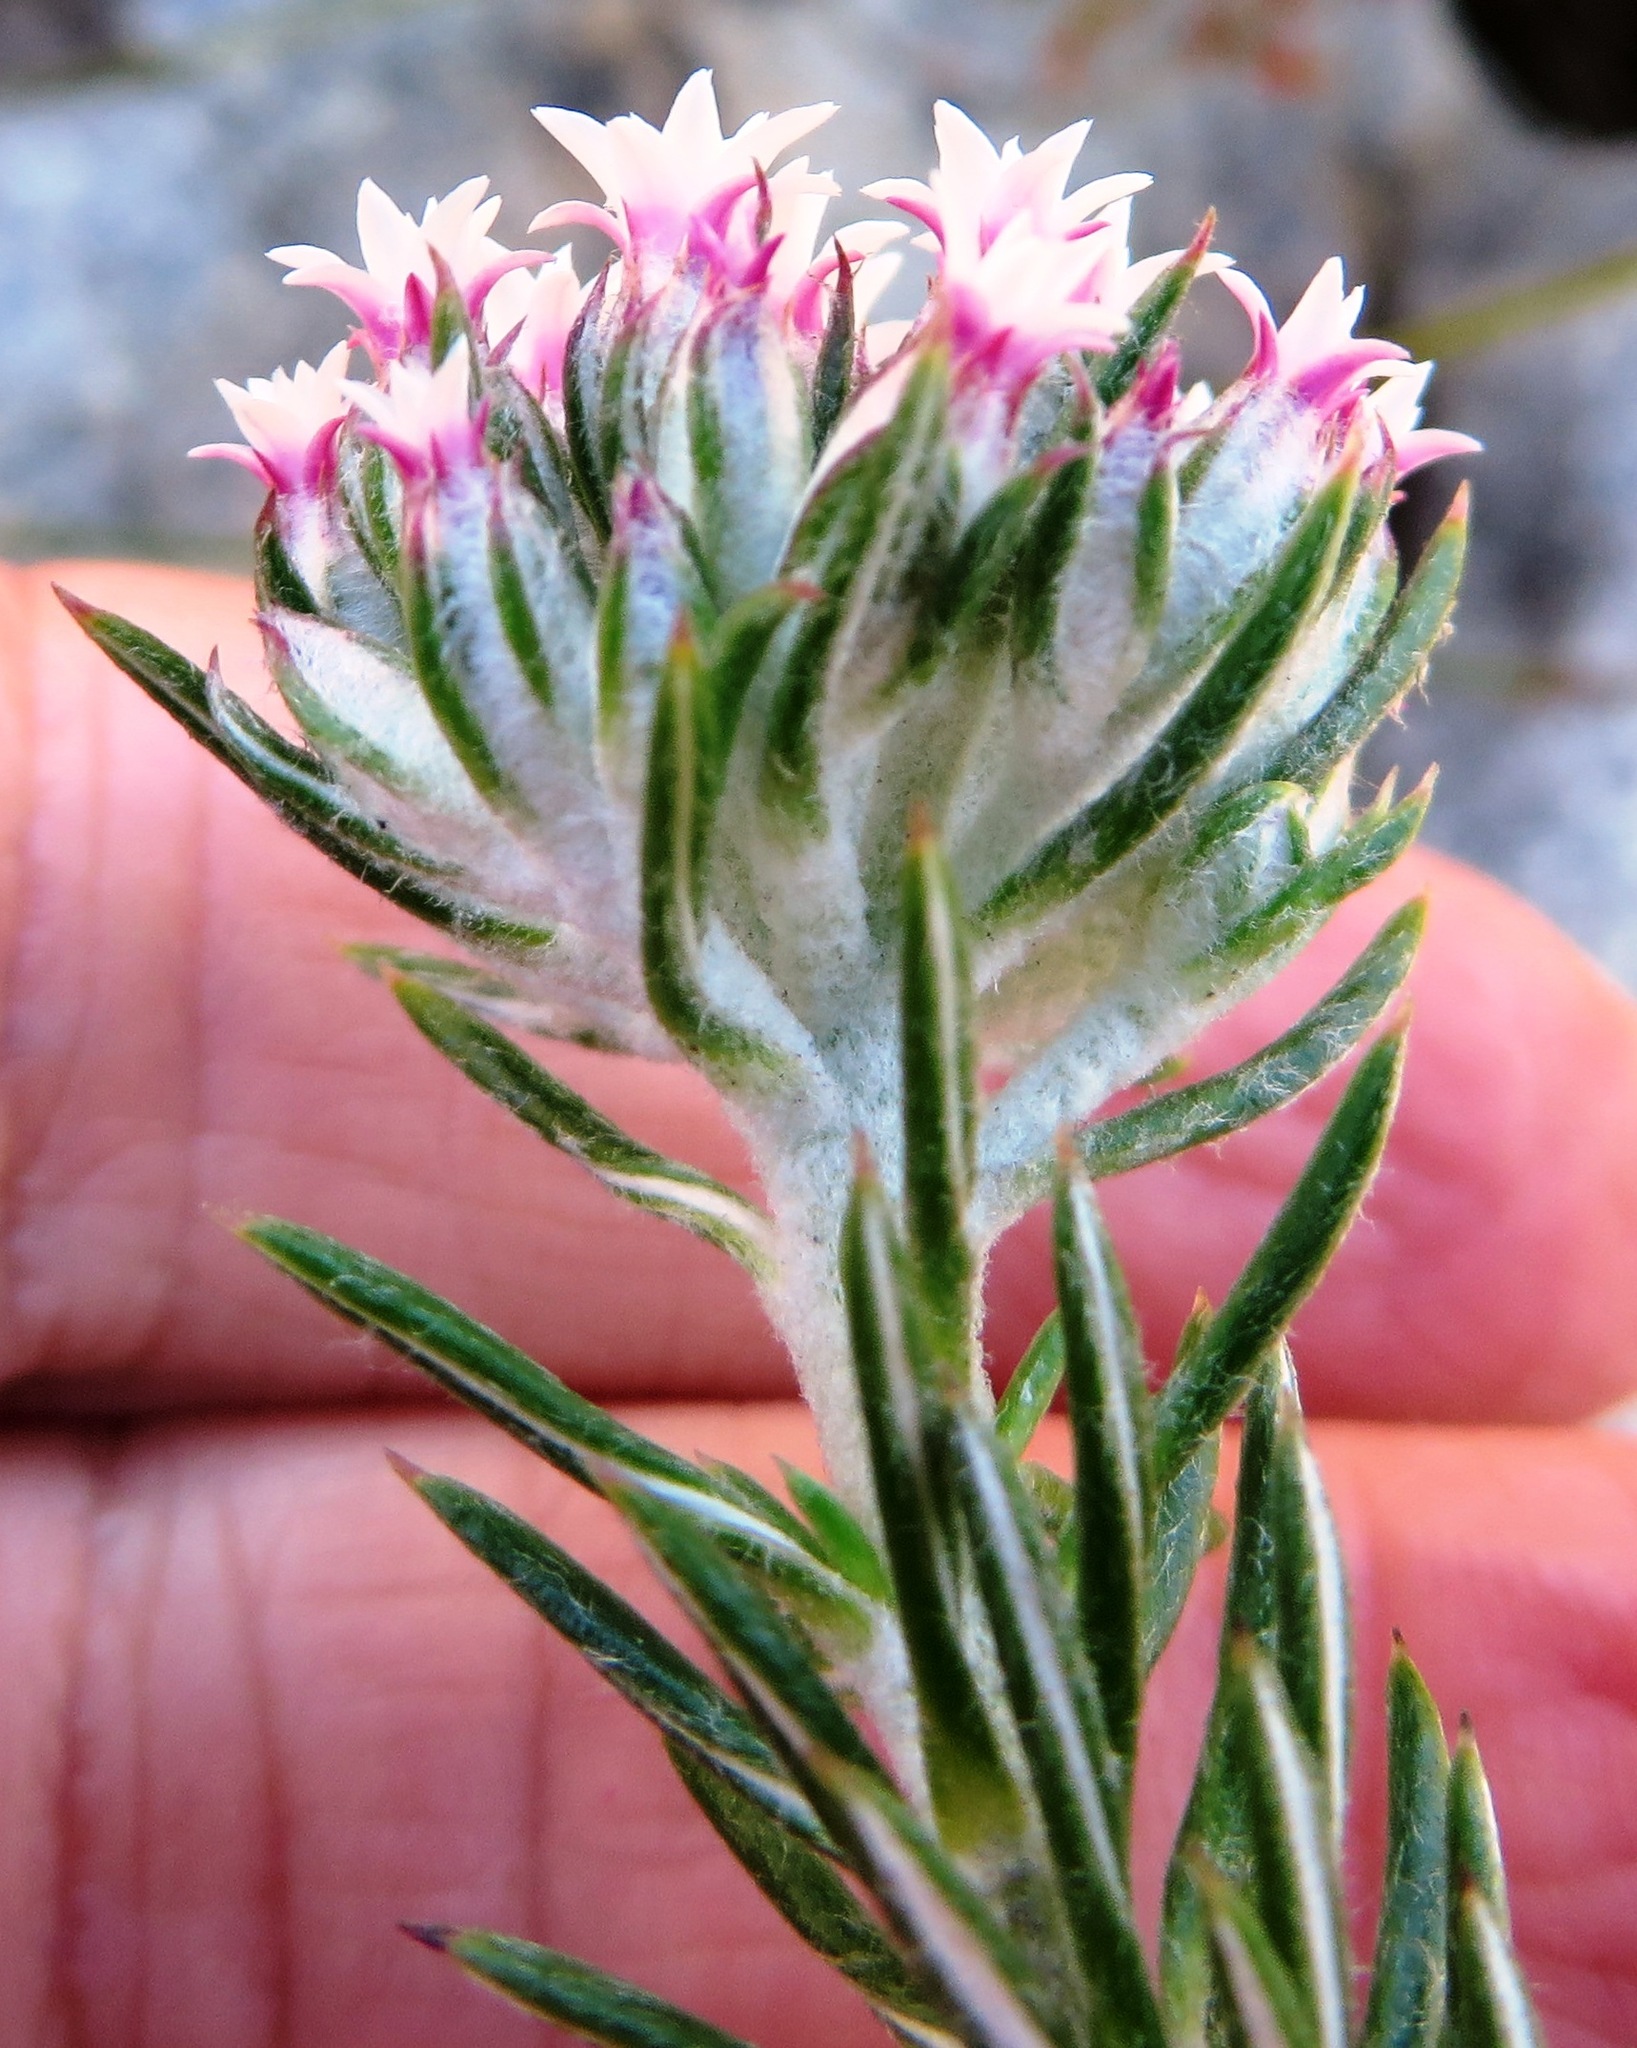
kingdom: Plantae
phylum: Tracheophyta
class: Magnoliopsida
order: Asterales
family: Asteraceae
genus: Metalasia
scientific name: Metalasia lichtensteinii
